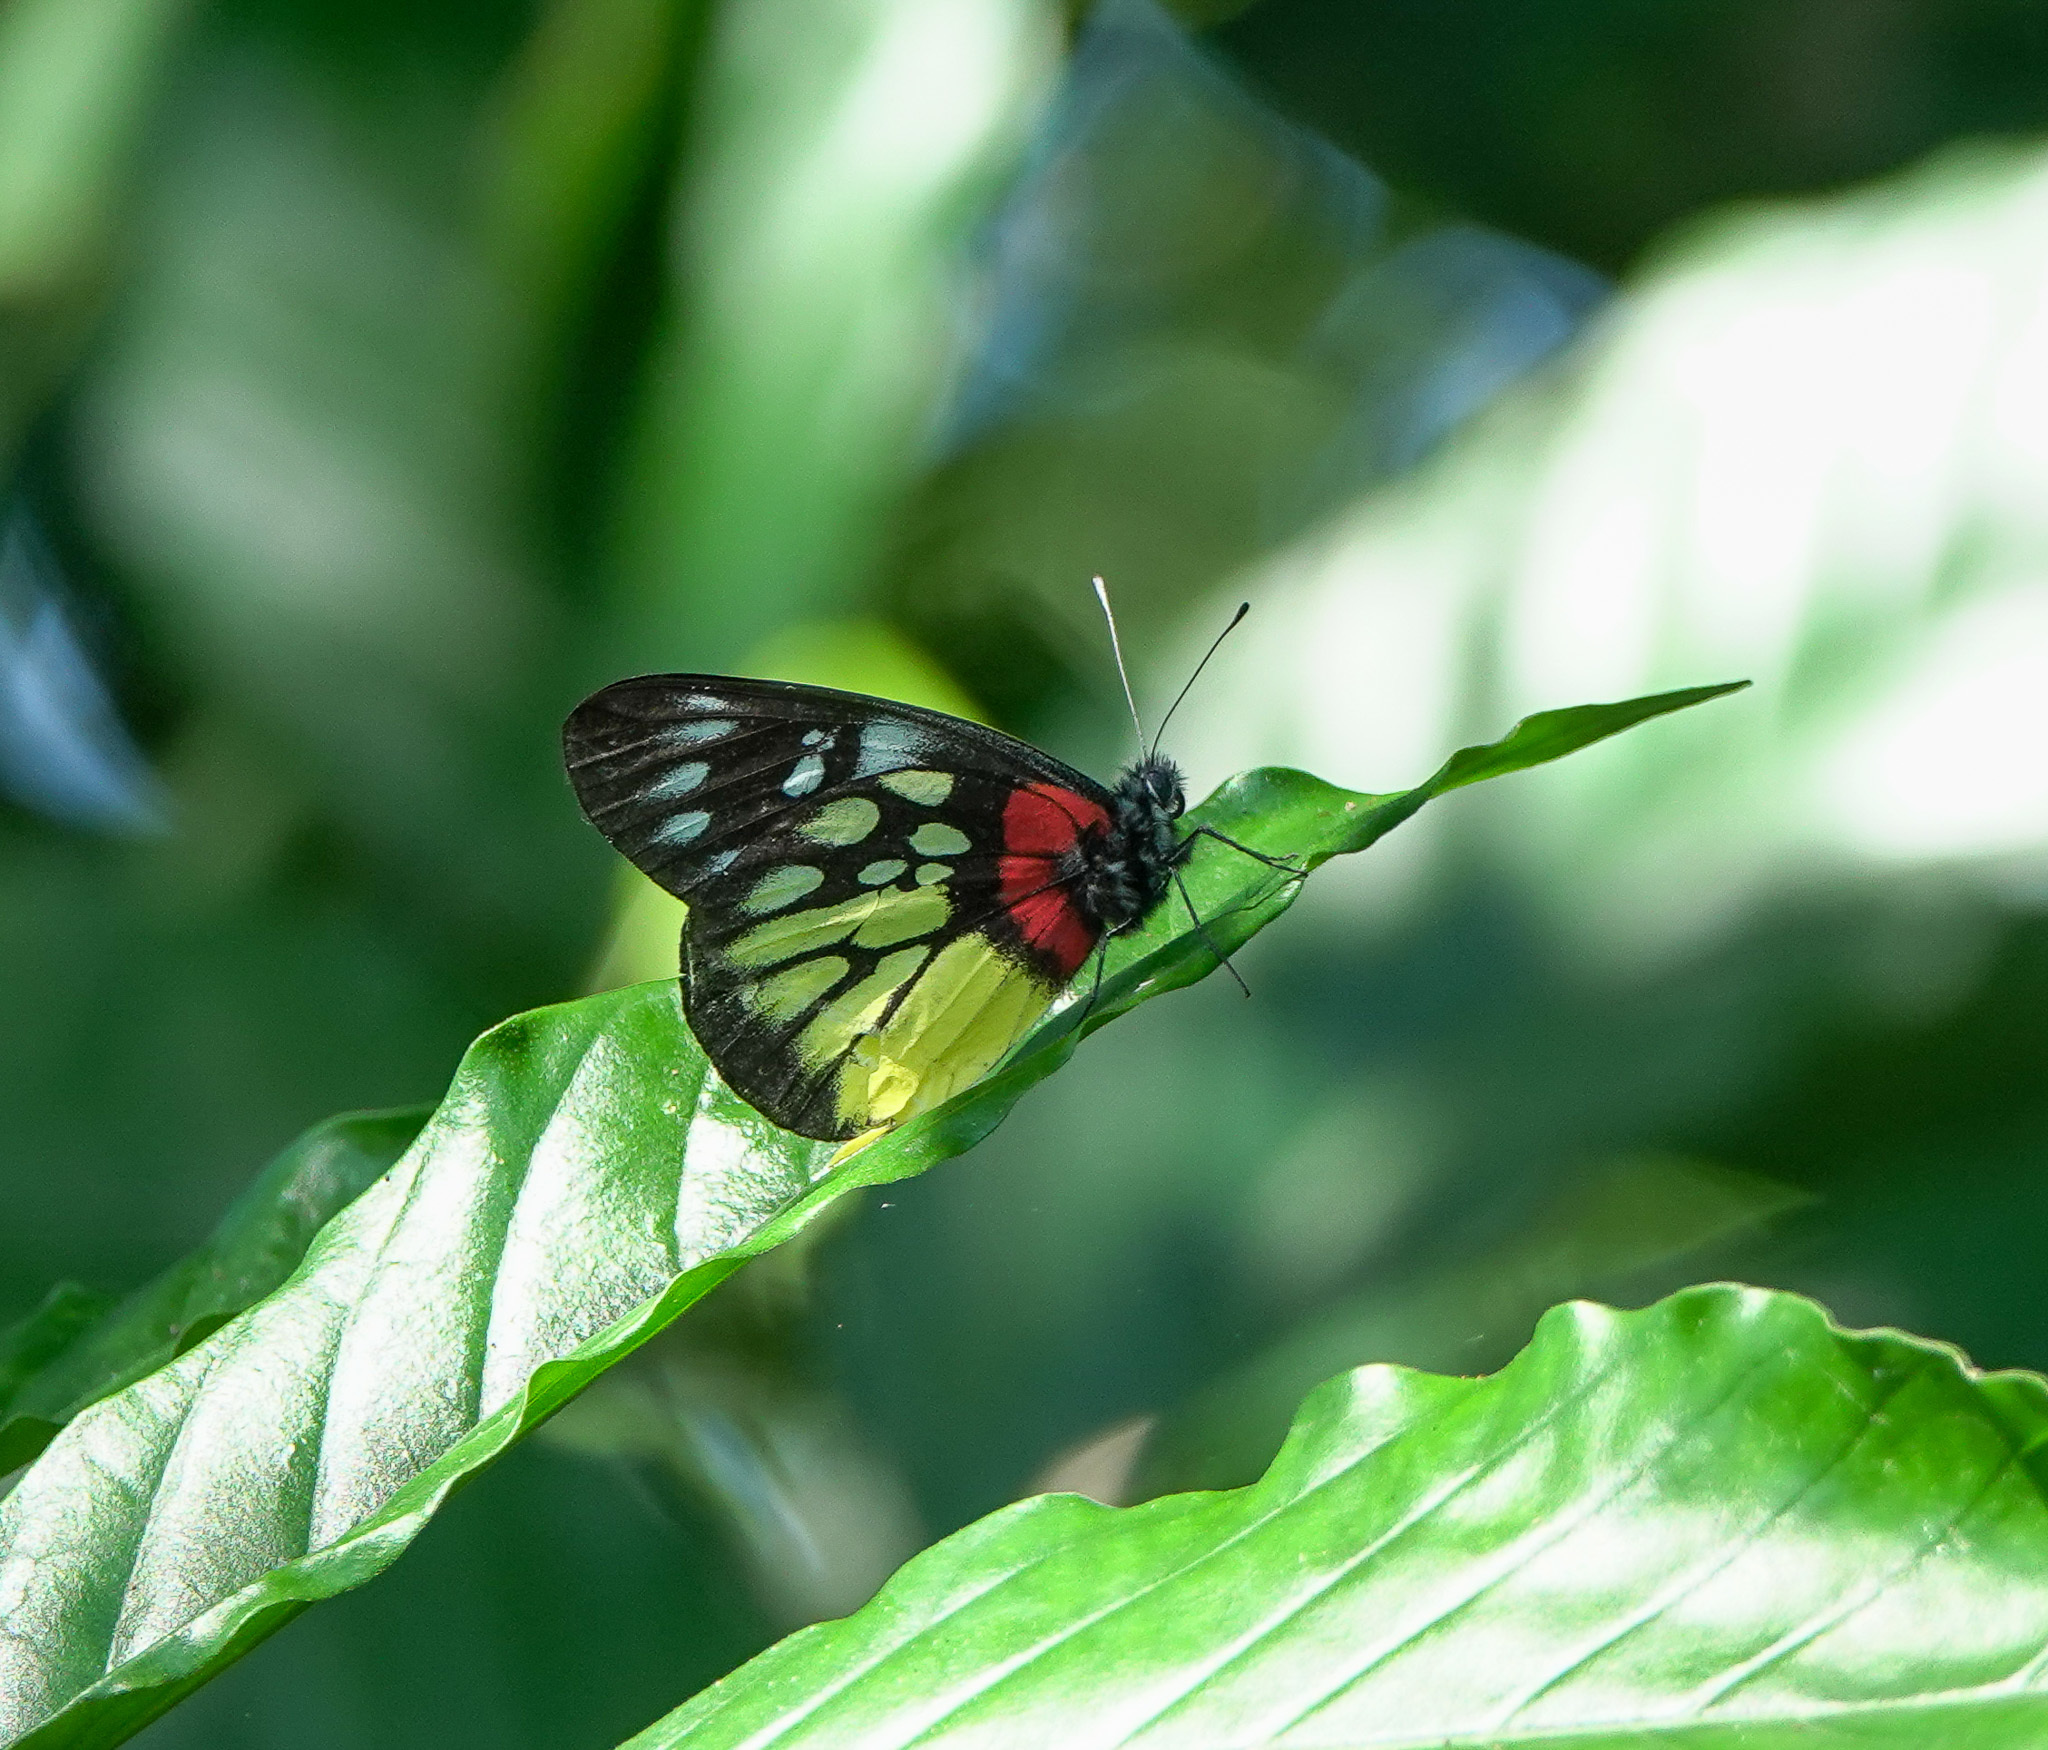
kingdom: Animalia
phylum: Arthropoda
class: Insecta
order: Lepidoptera
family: Pieridae
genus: Delias
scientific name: Delias pasithoe
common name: Red-base jezebel
